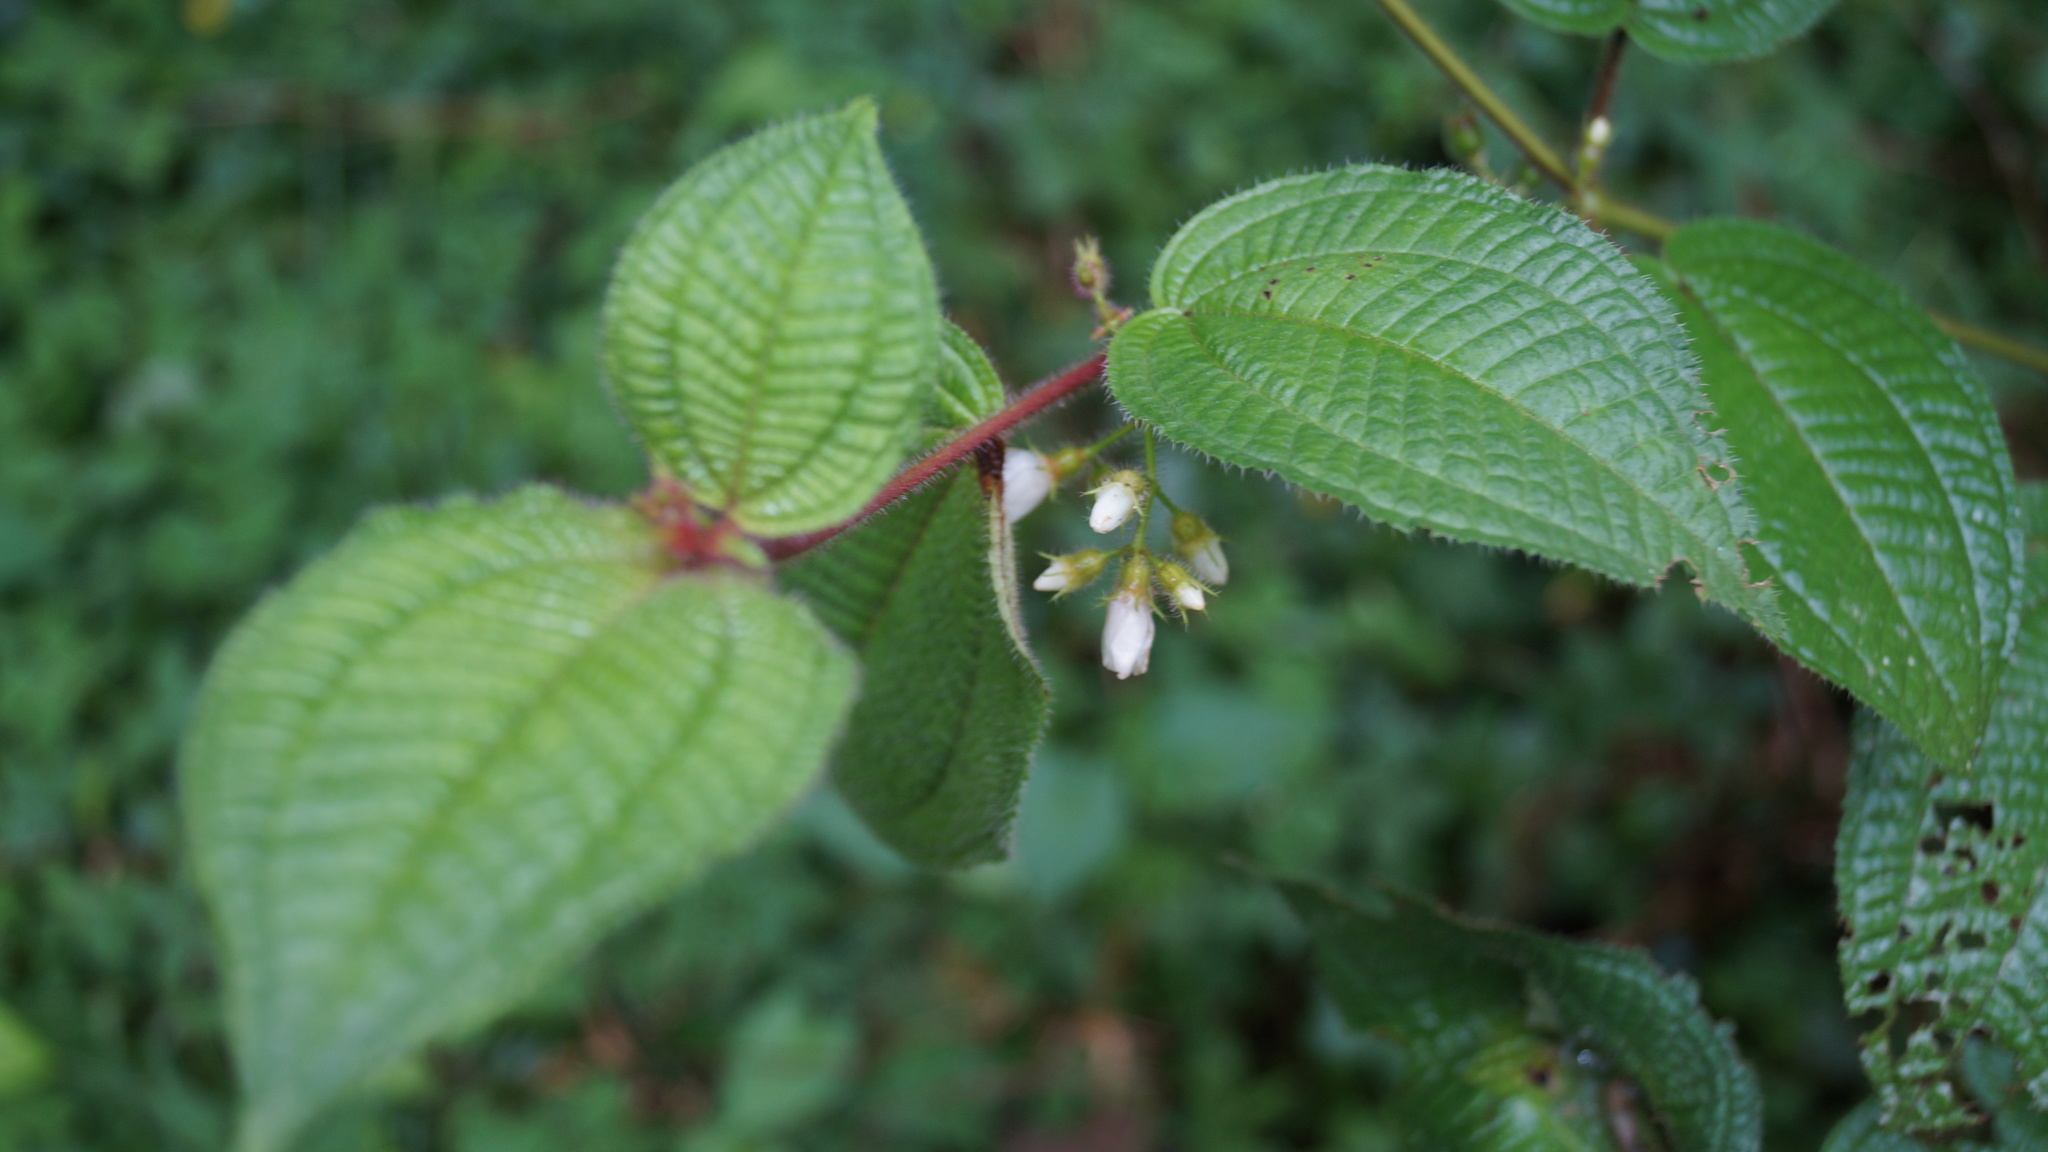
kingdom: Plantae
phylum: Tracheophyta
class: Magnoliopsida
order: Myrtales
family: Melastomataceae
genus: Miconia
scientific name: Miconia crenata
